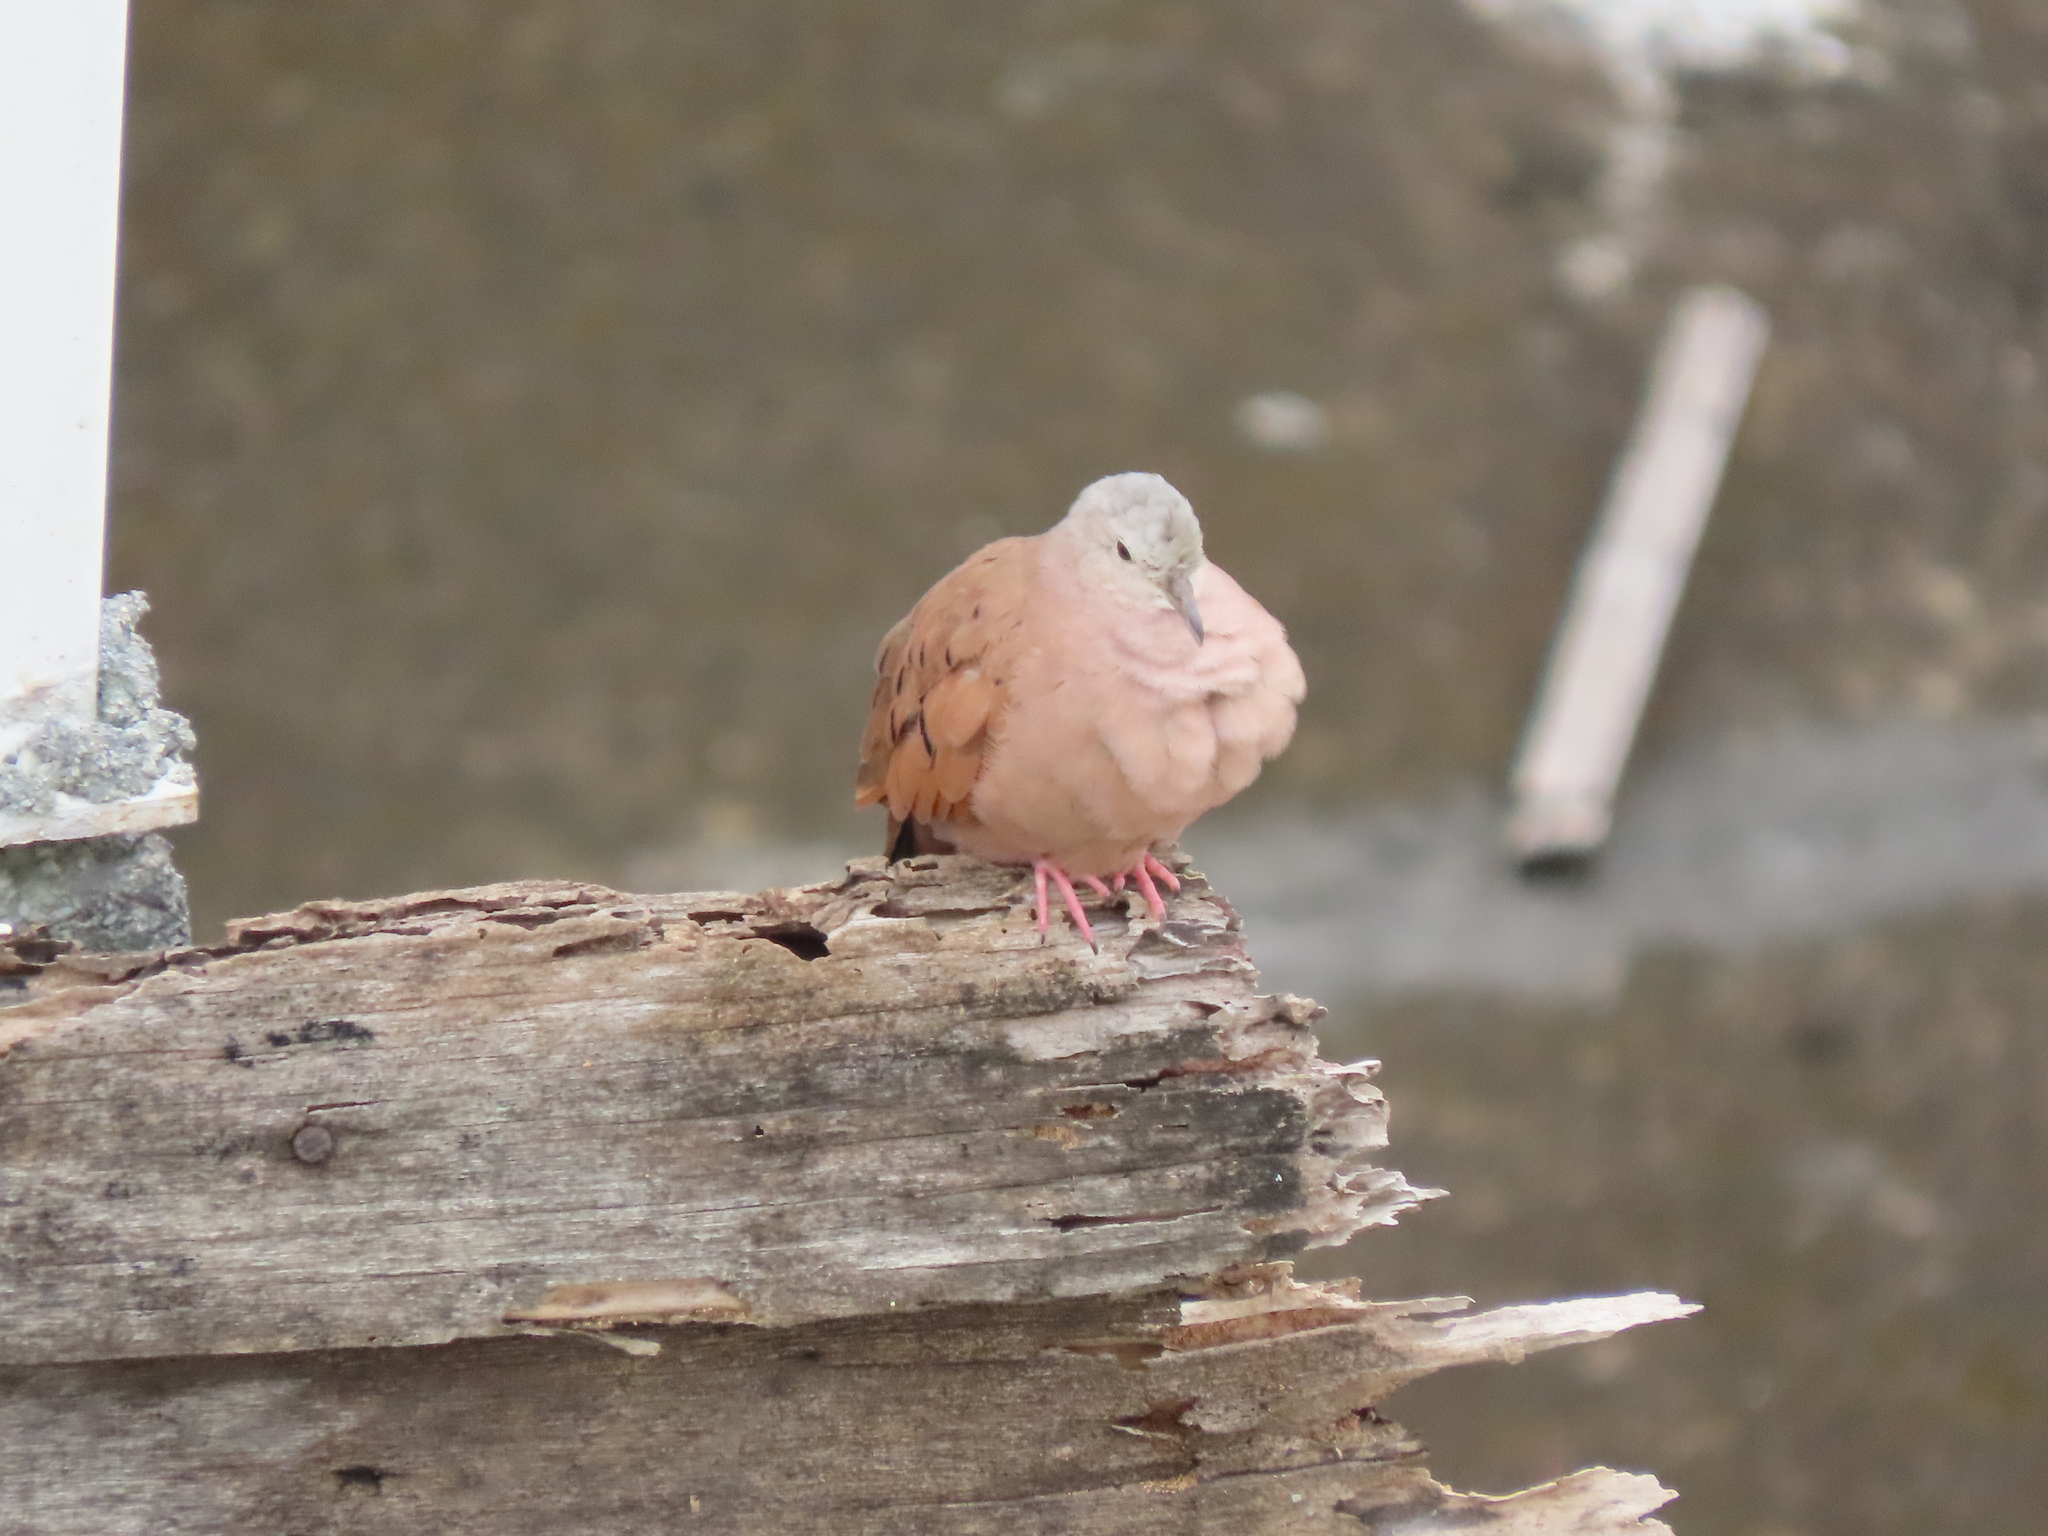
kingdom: Animalia
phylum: Chordata
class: Aves
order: Columbiformes
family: Columbidae
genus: Columbina
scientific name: Columbina talpacoti
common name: Ruddy ground dove
